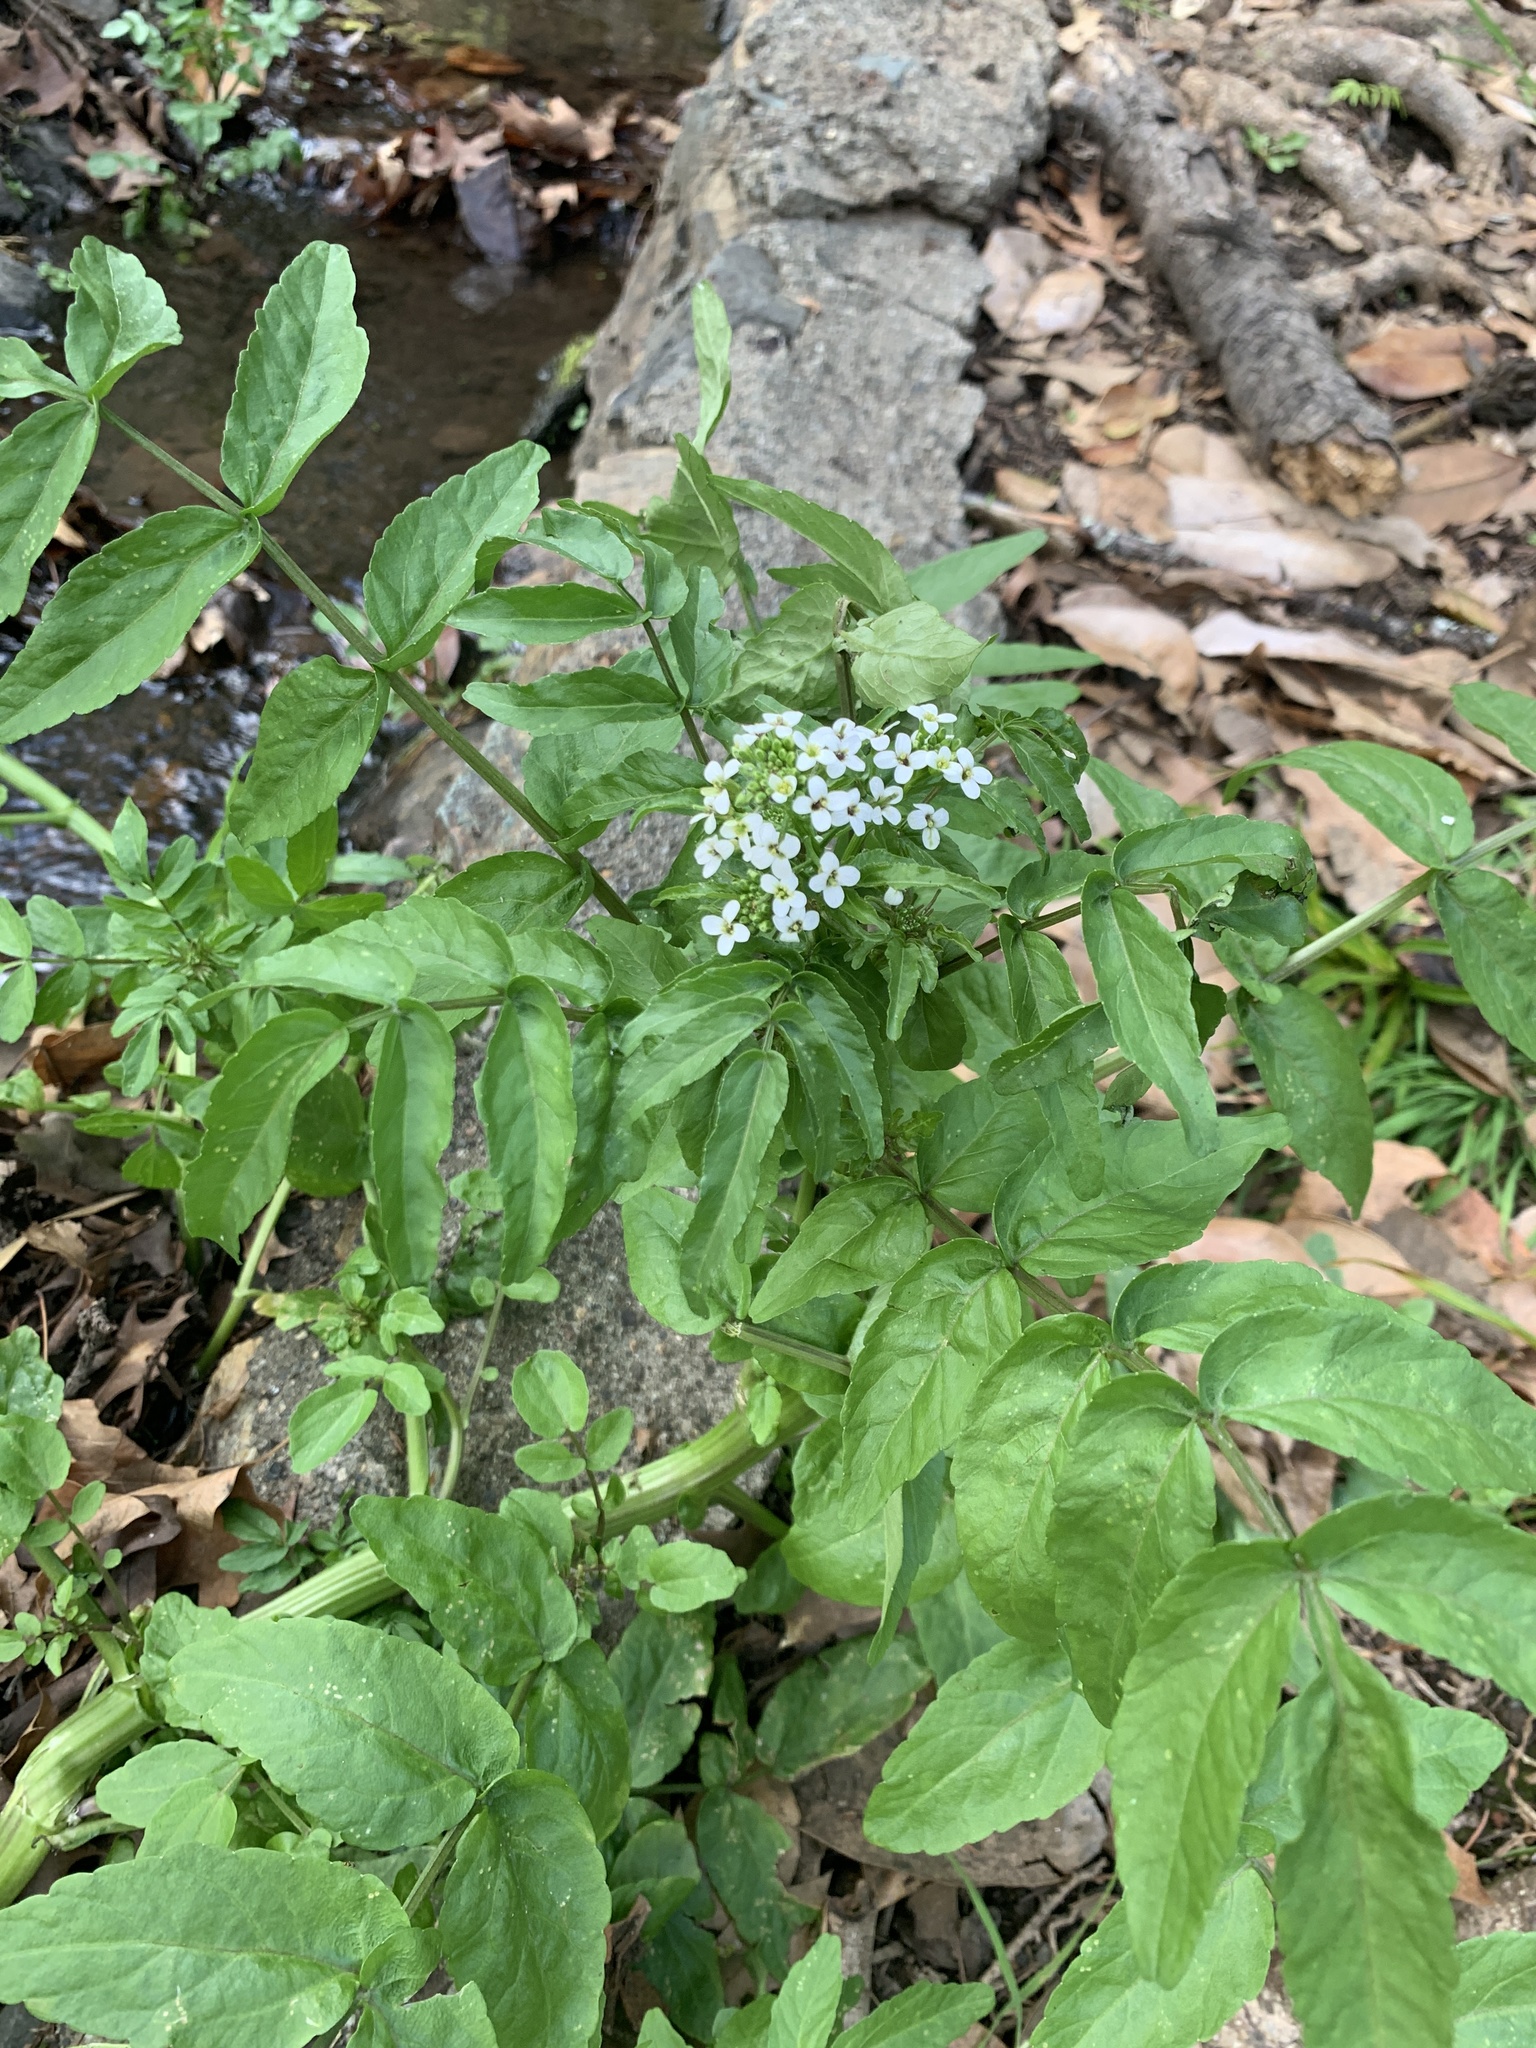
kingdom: Plantae
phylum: Tracheophyta
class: Magnoliopsida
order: Brassicales
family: Brassicaceae
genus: Nasturtium
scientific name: Nasturtium officinale
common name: Watercress
